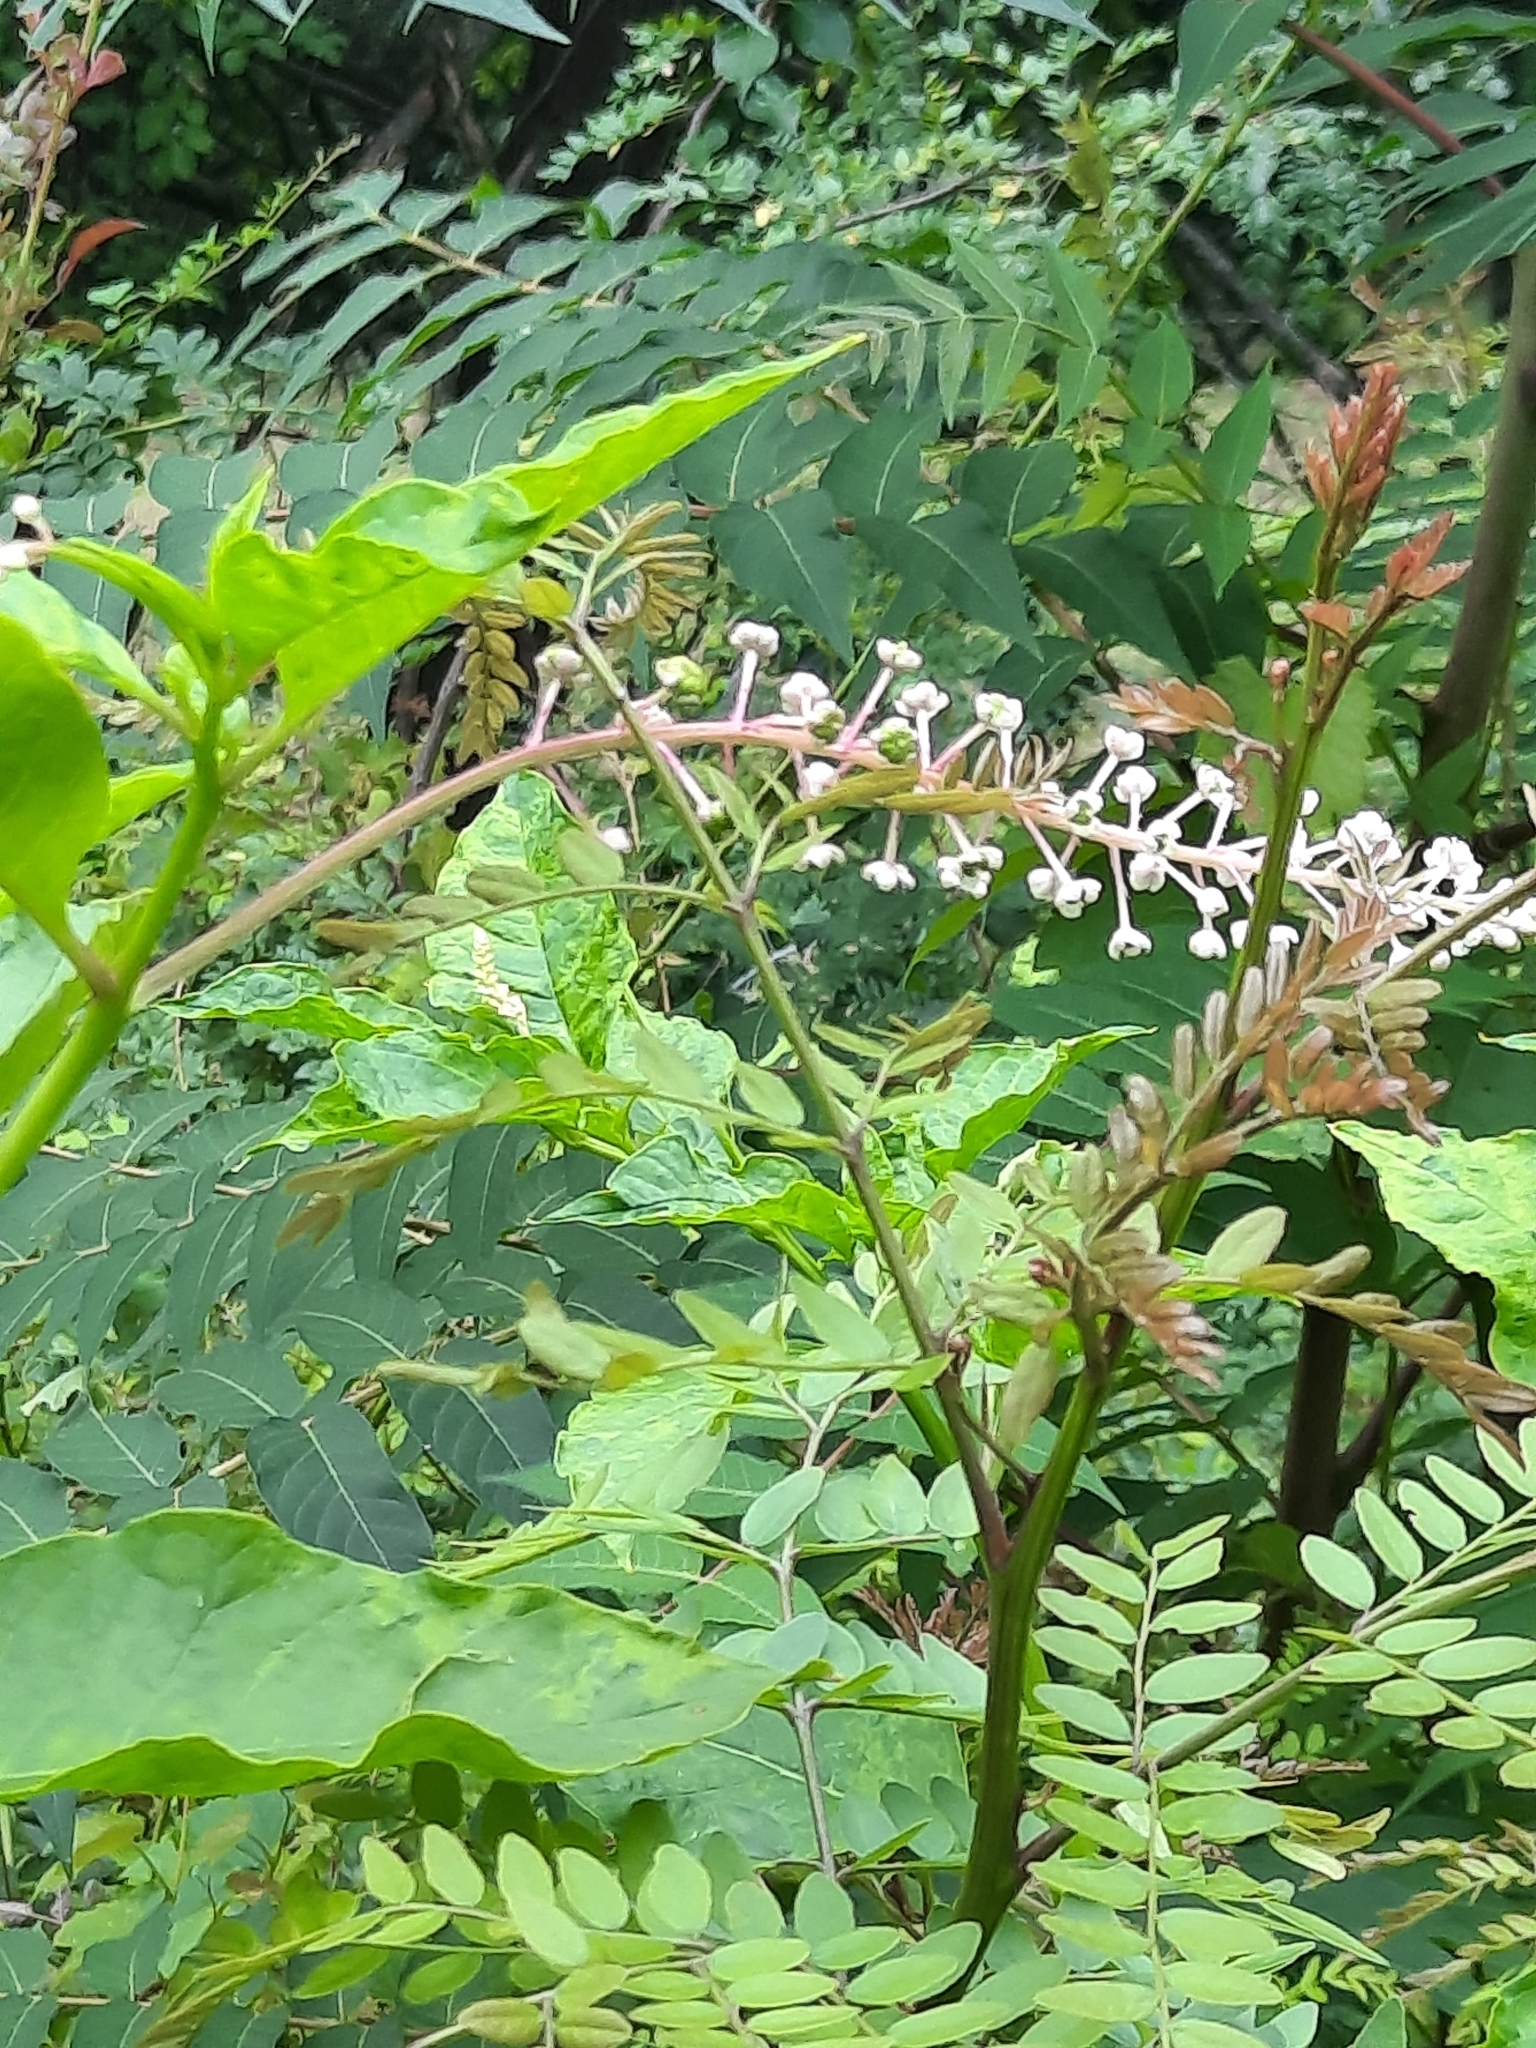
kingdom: Plantae
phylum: Tracheophyta
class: Magnoliopsida
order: Caryophyllales
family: Phytolaccaceae
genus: Phytolacca
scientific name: Phytolacca americana
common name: American pokeweed
